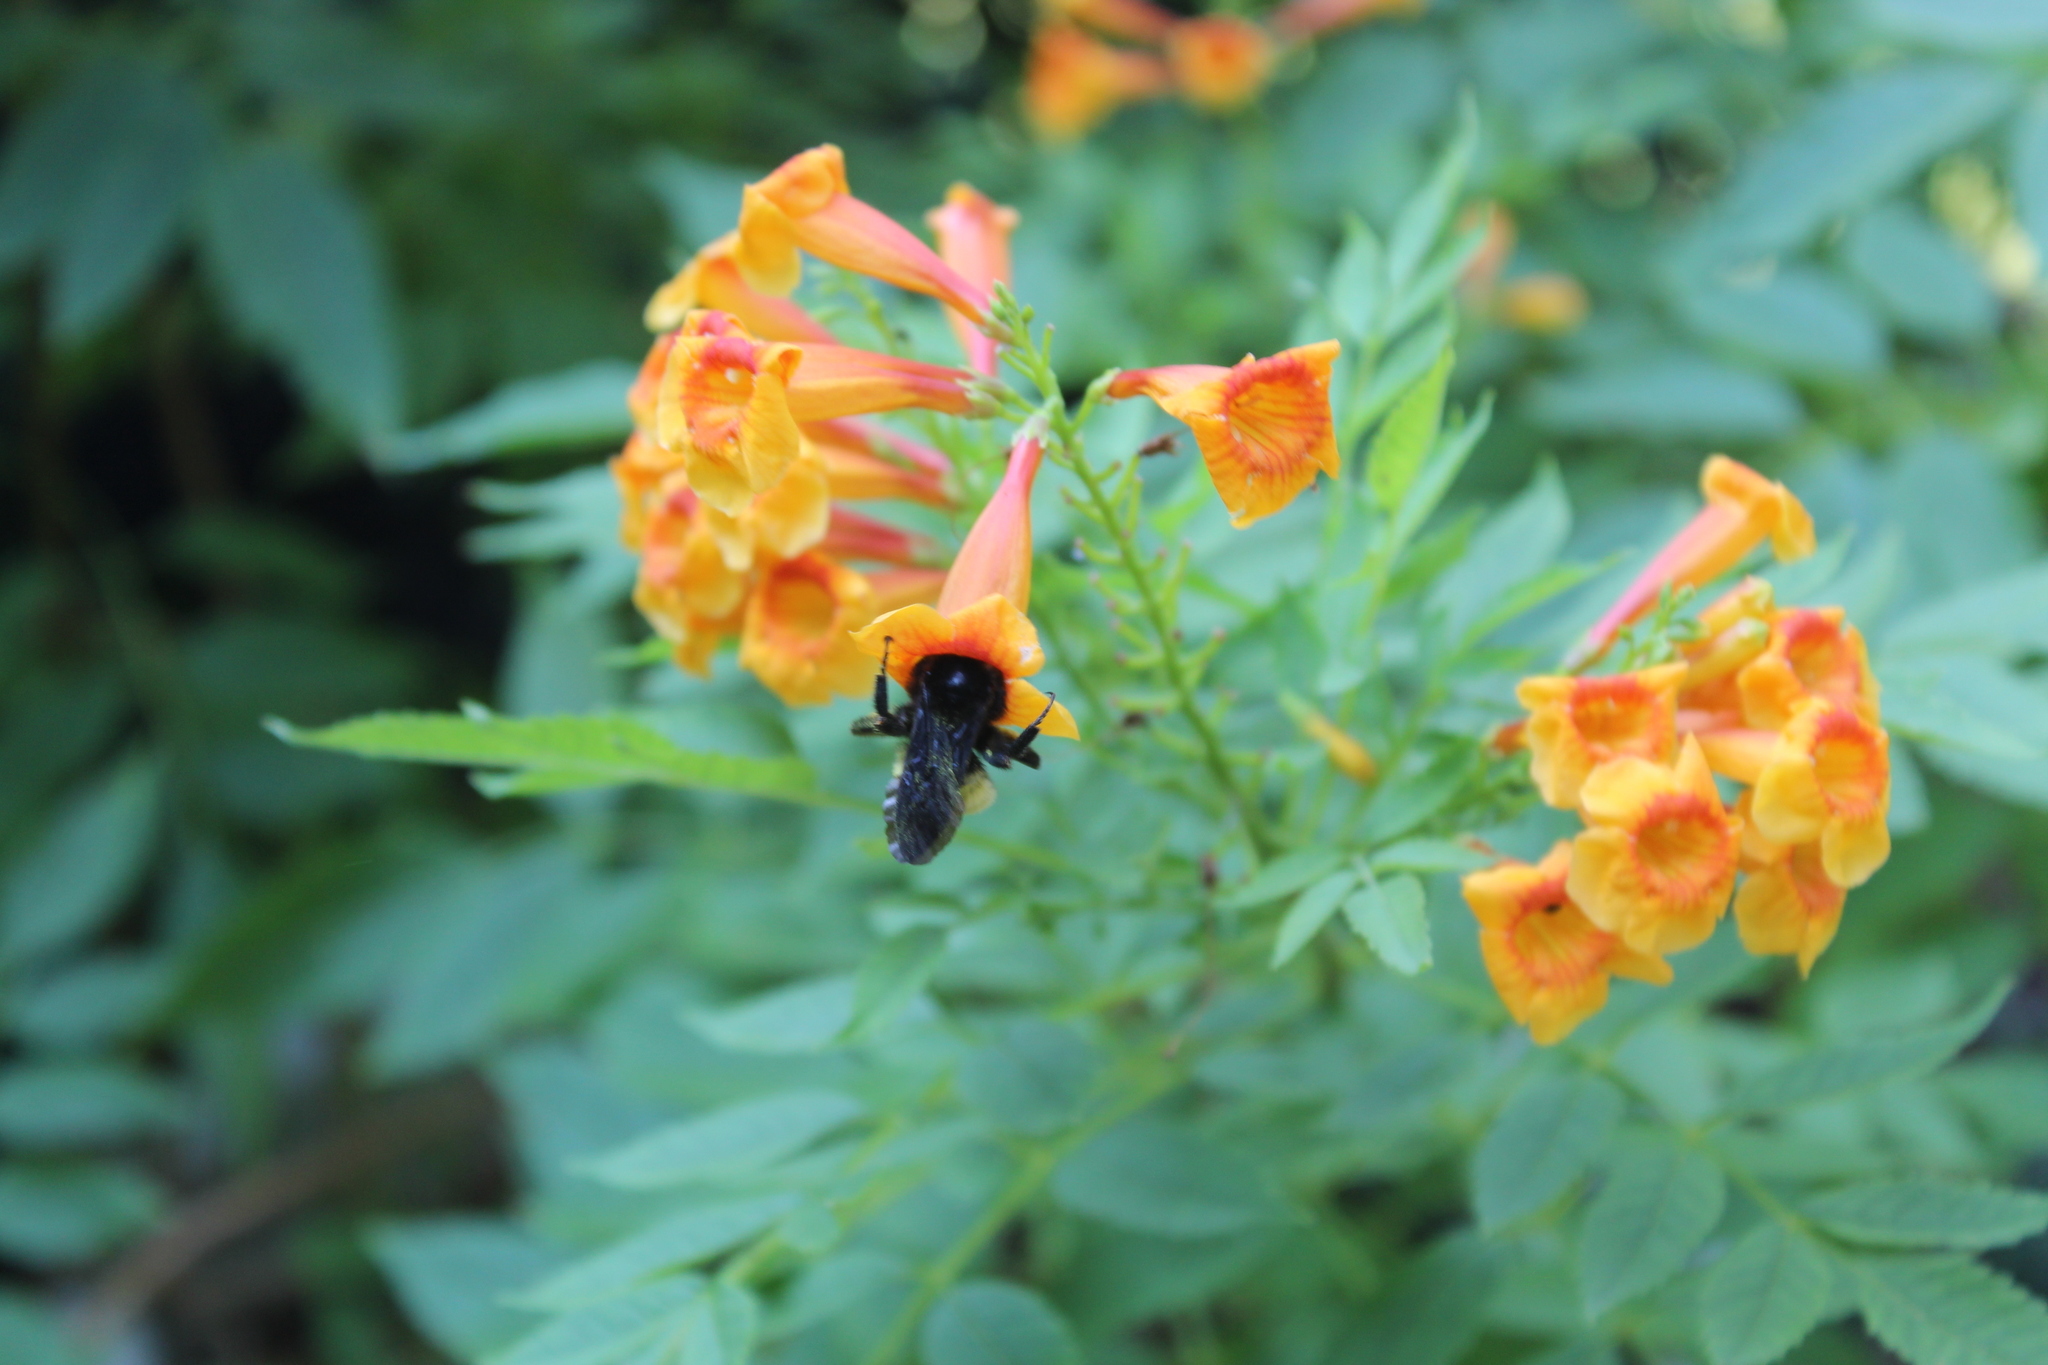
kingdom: Animalia
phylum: Arthropoda
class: Insecta
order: Hymenoptera
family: Apidae
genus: Bombus
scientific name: Bombus pensylvanicus
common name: Bumble bee
